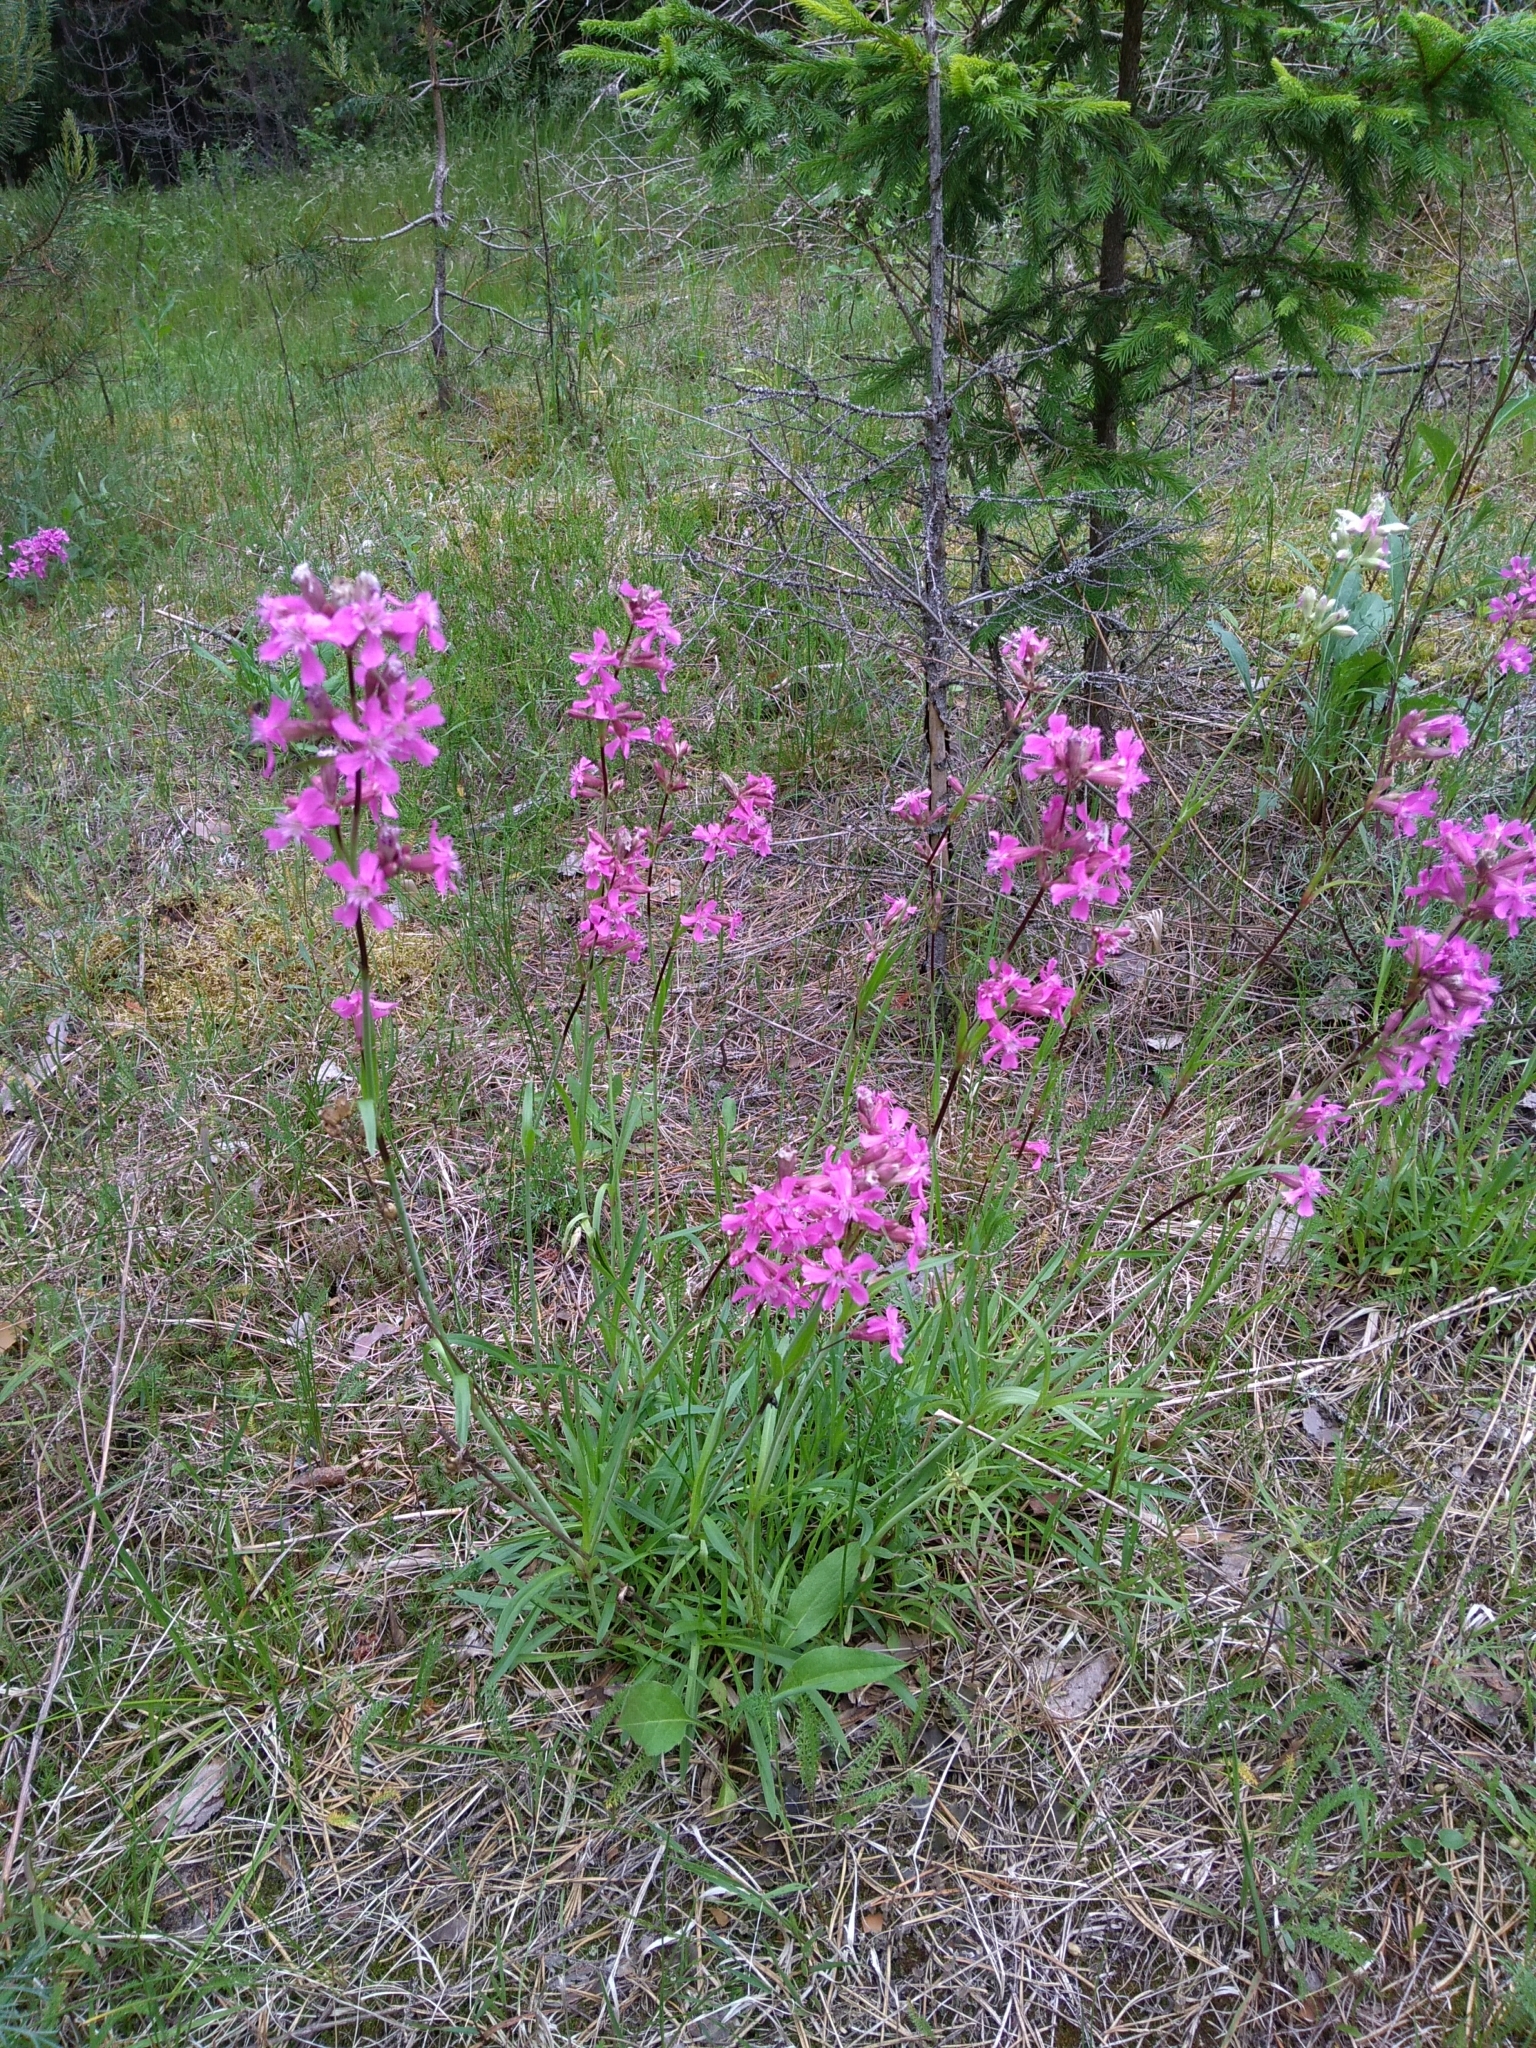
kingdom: Plantae
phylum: Tracheophyta
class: Magnoliopsida
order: Caryophyllales
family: Caryophyllaceae
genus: Viscaria
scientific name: Viscaria vulgaris
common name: Clammy campion
